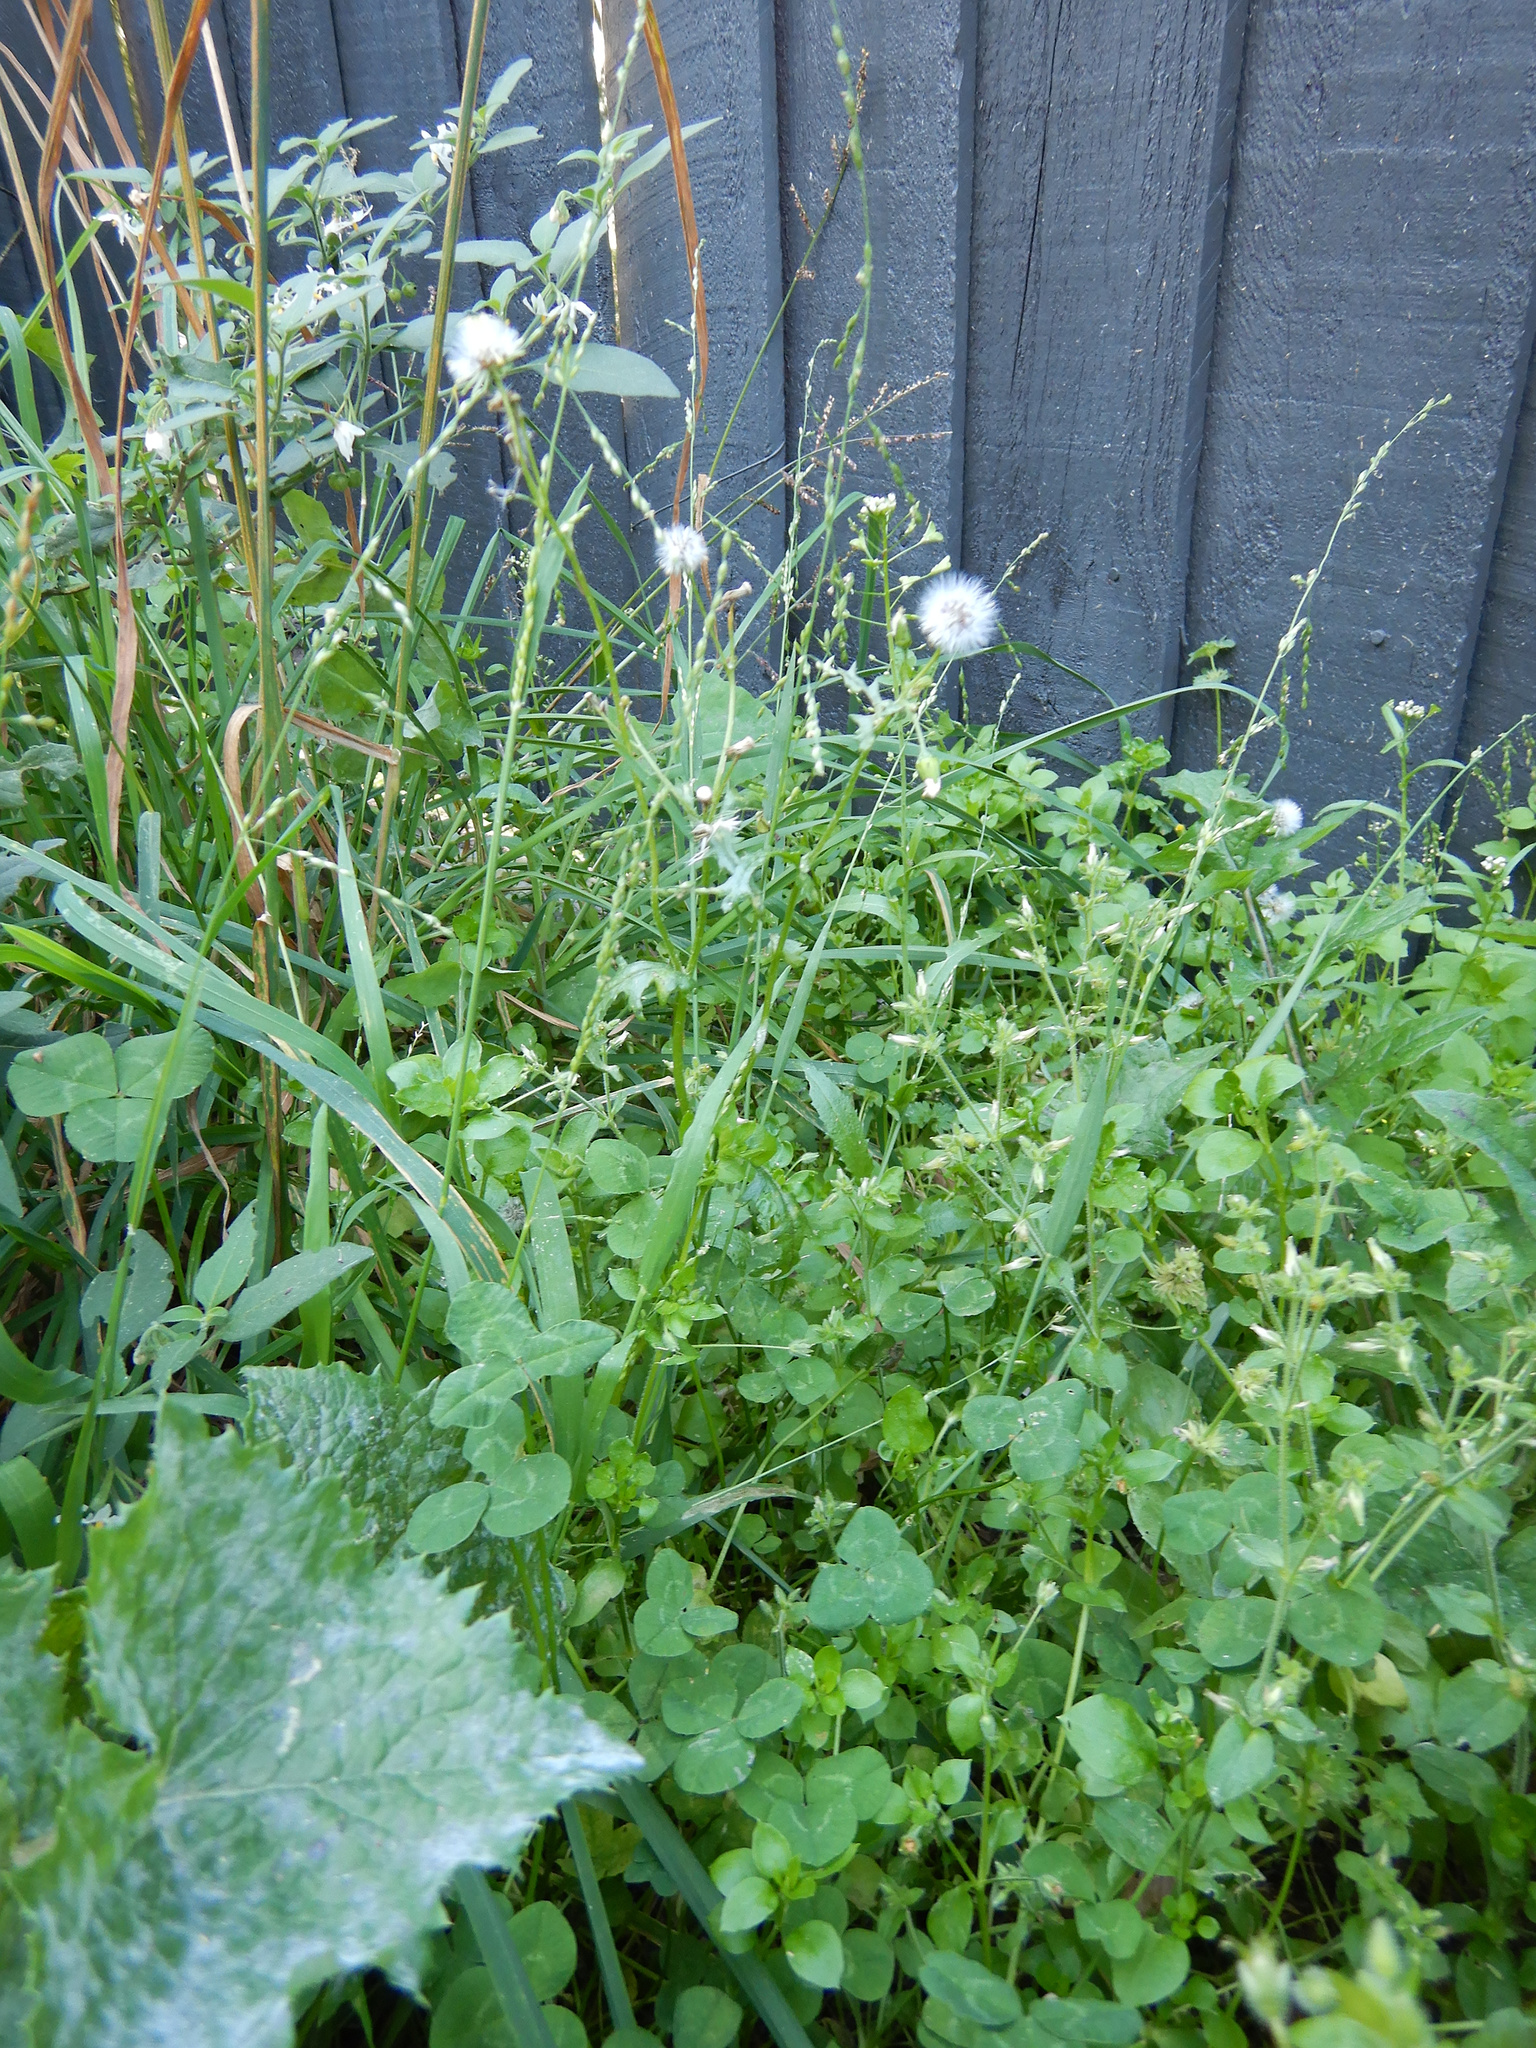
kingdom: Plantae
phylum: Tracheophyta
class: Magnoliopsida
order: Asterales
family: Asteraceae
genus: Senecio
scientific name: Senecio vulgaris
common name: Old-man-in-the-spring
